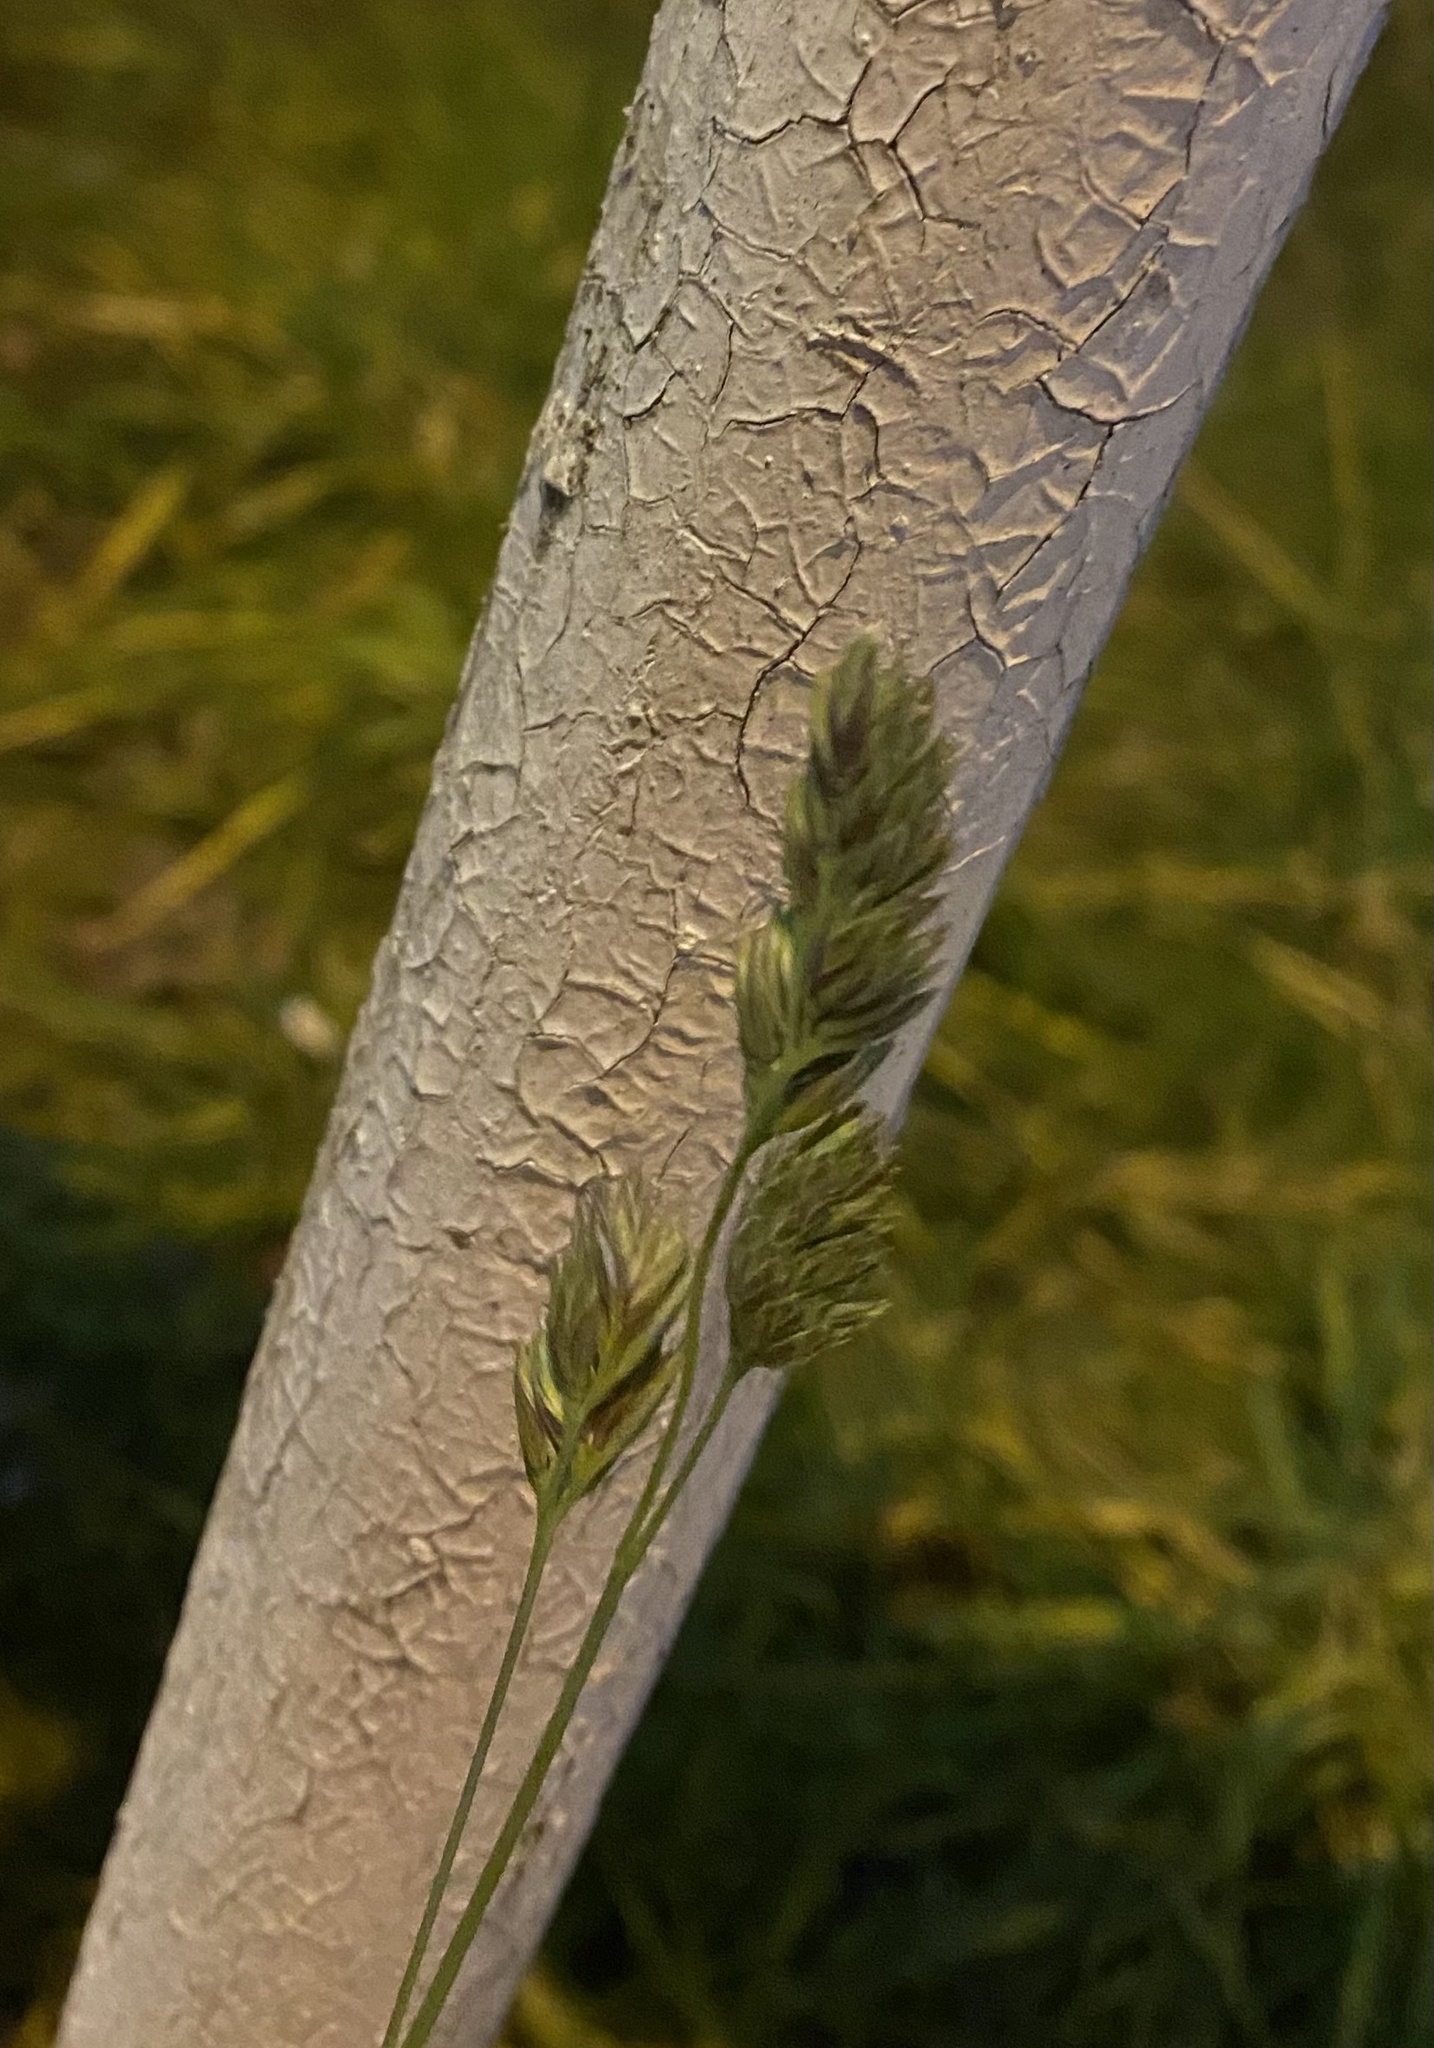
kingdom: Plantae
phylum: Tracheophyta
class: Liliopsida
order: Poales
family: Poaceae
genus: Dactylis
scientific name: Dactylis glomerata
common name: Orchardgrass
